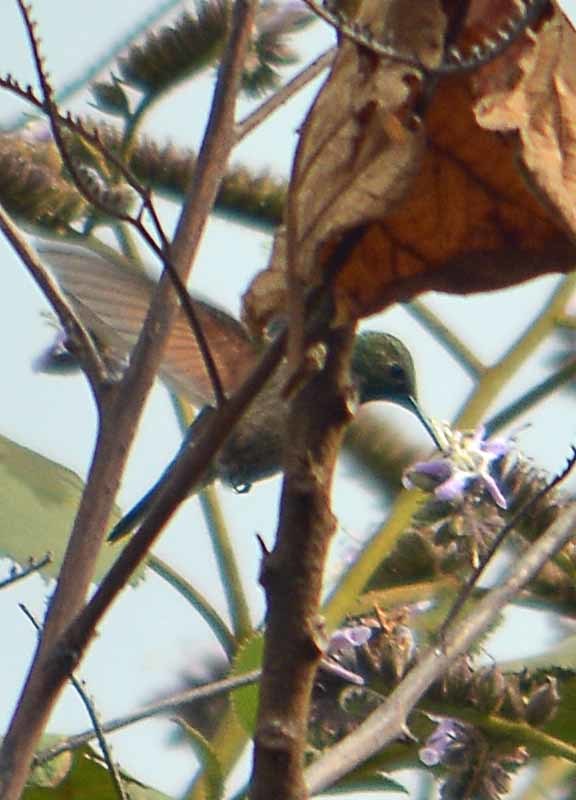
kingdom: Animalia
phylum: Chordata
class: Aves
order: Apodiformes
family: Trochilidae
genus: Saucerottia
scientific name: Saucerottia beryllina
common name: Berylline hummingbird
